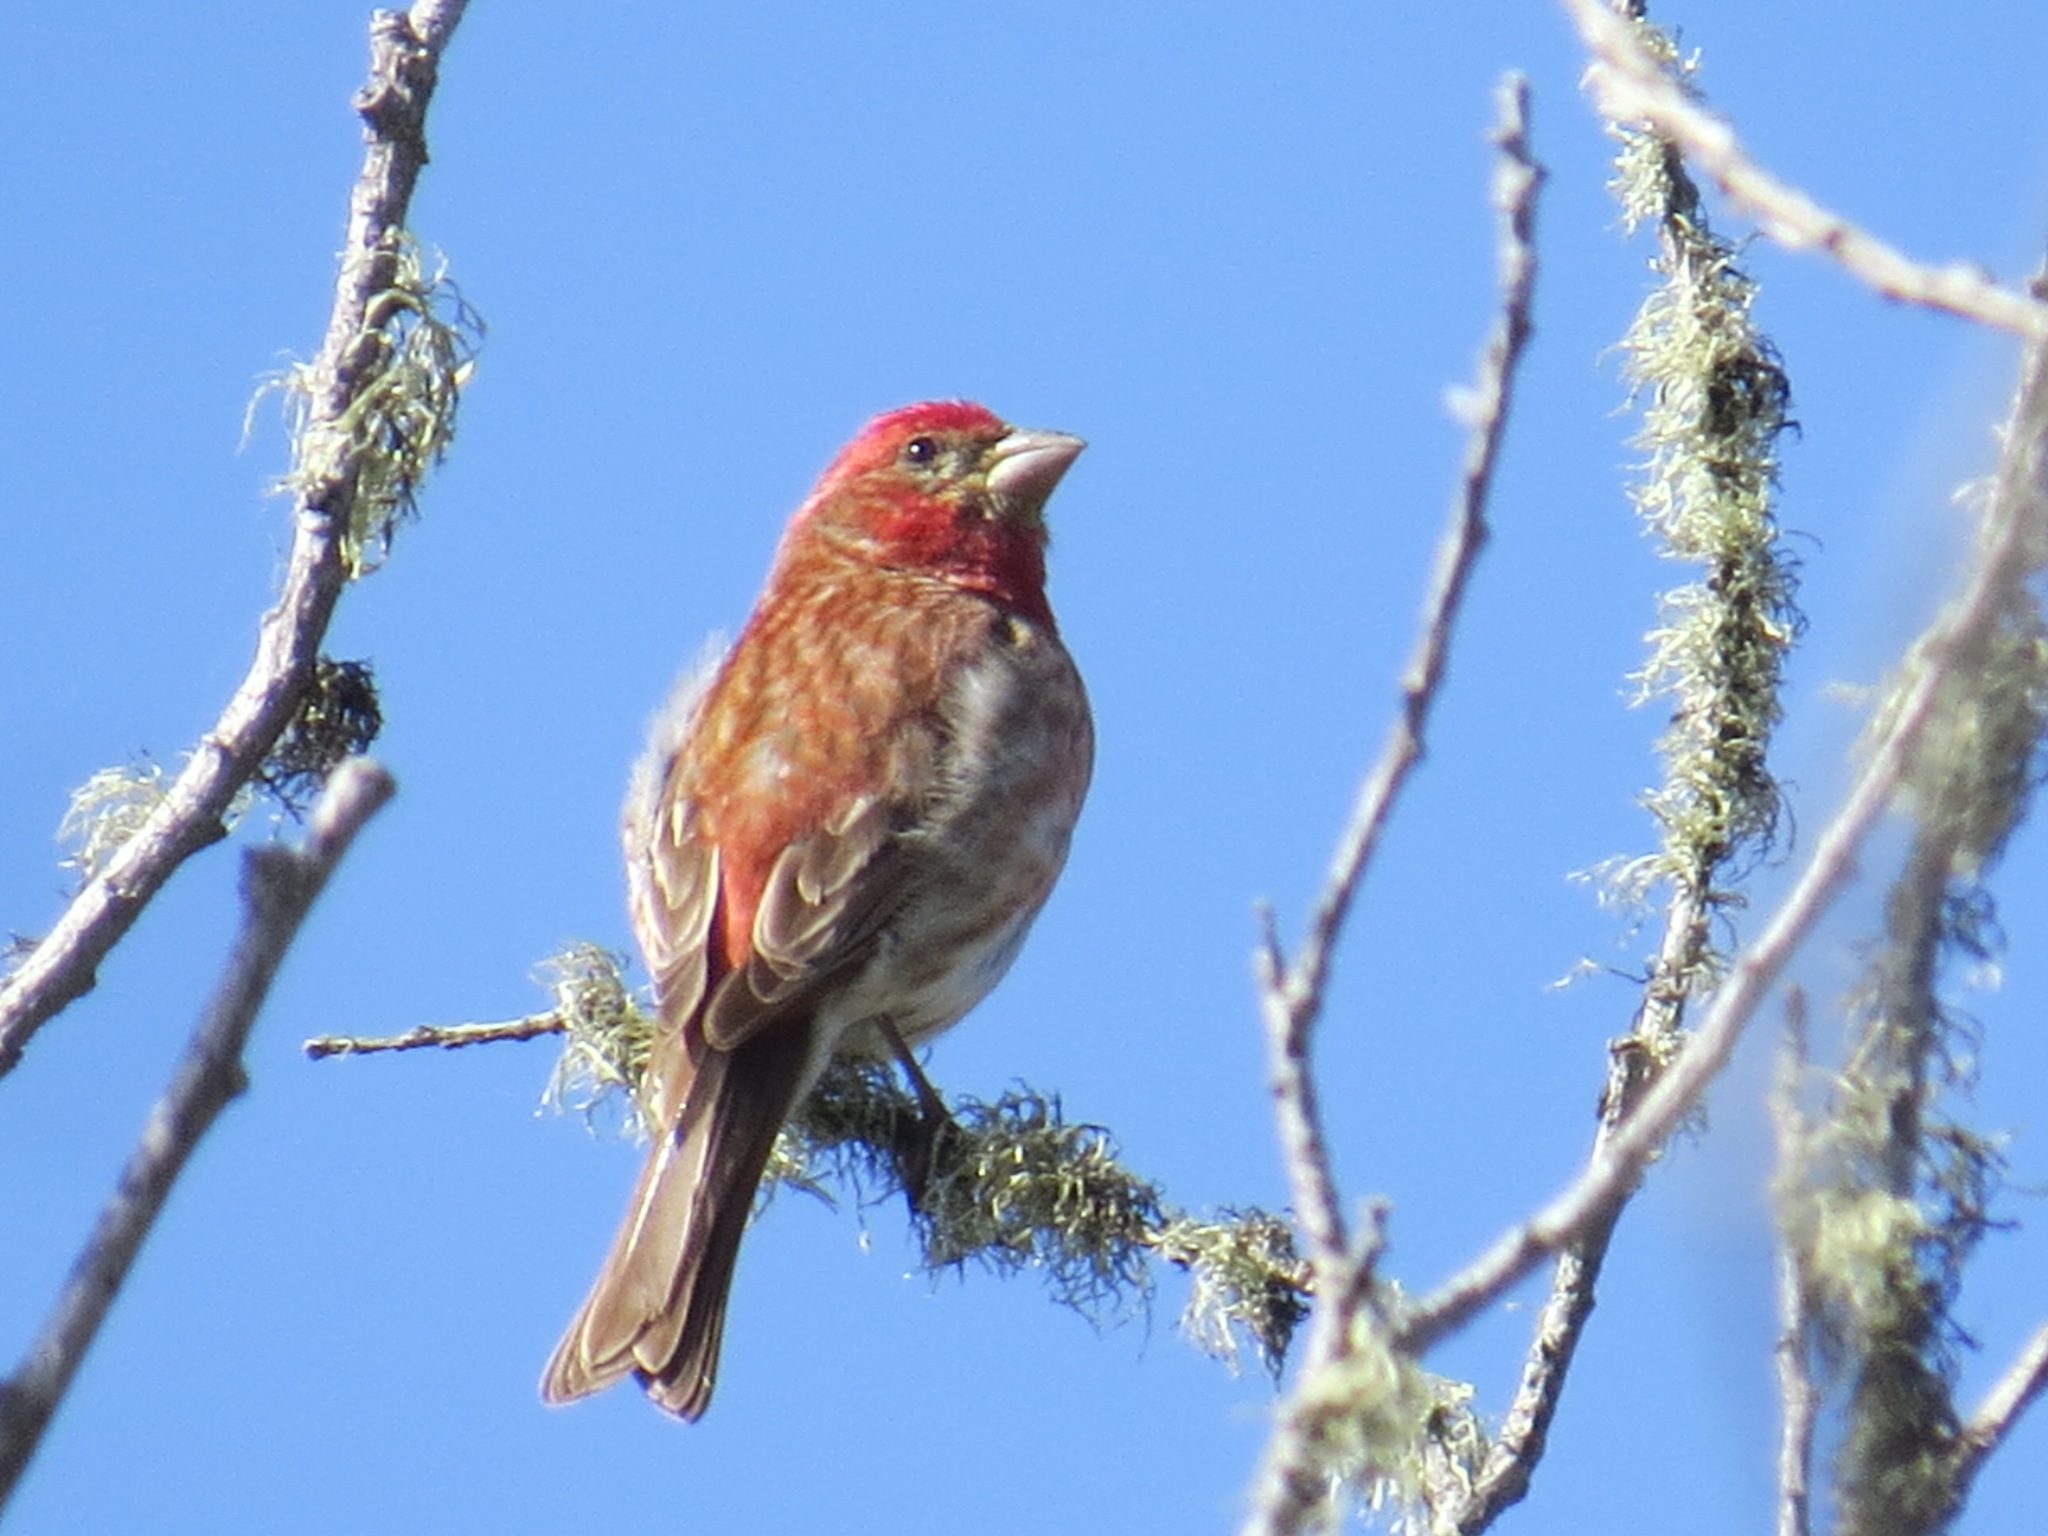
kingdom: Animalia
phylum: Chordata
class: Aves
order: Passeriformes
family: Fringillidae
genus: Haemorhous
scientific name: Haemorhous purpureus
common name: Purple finch
